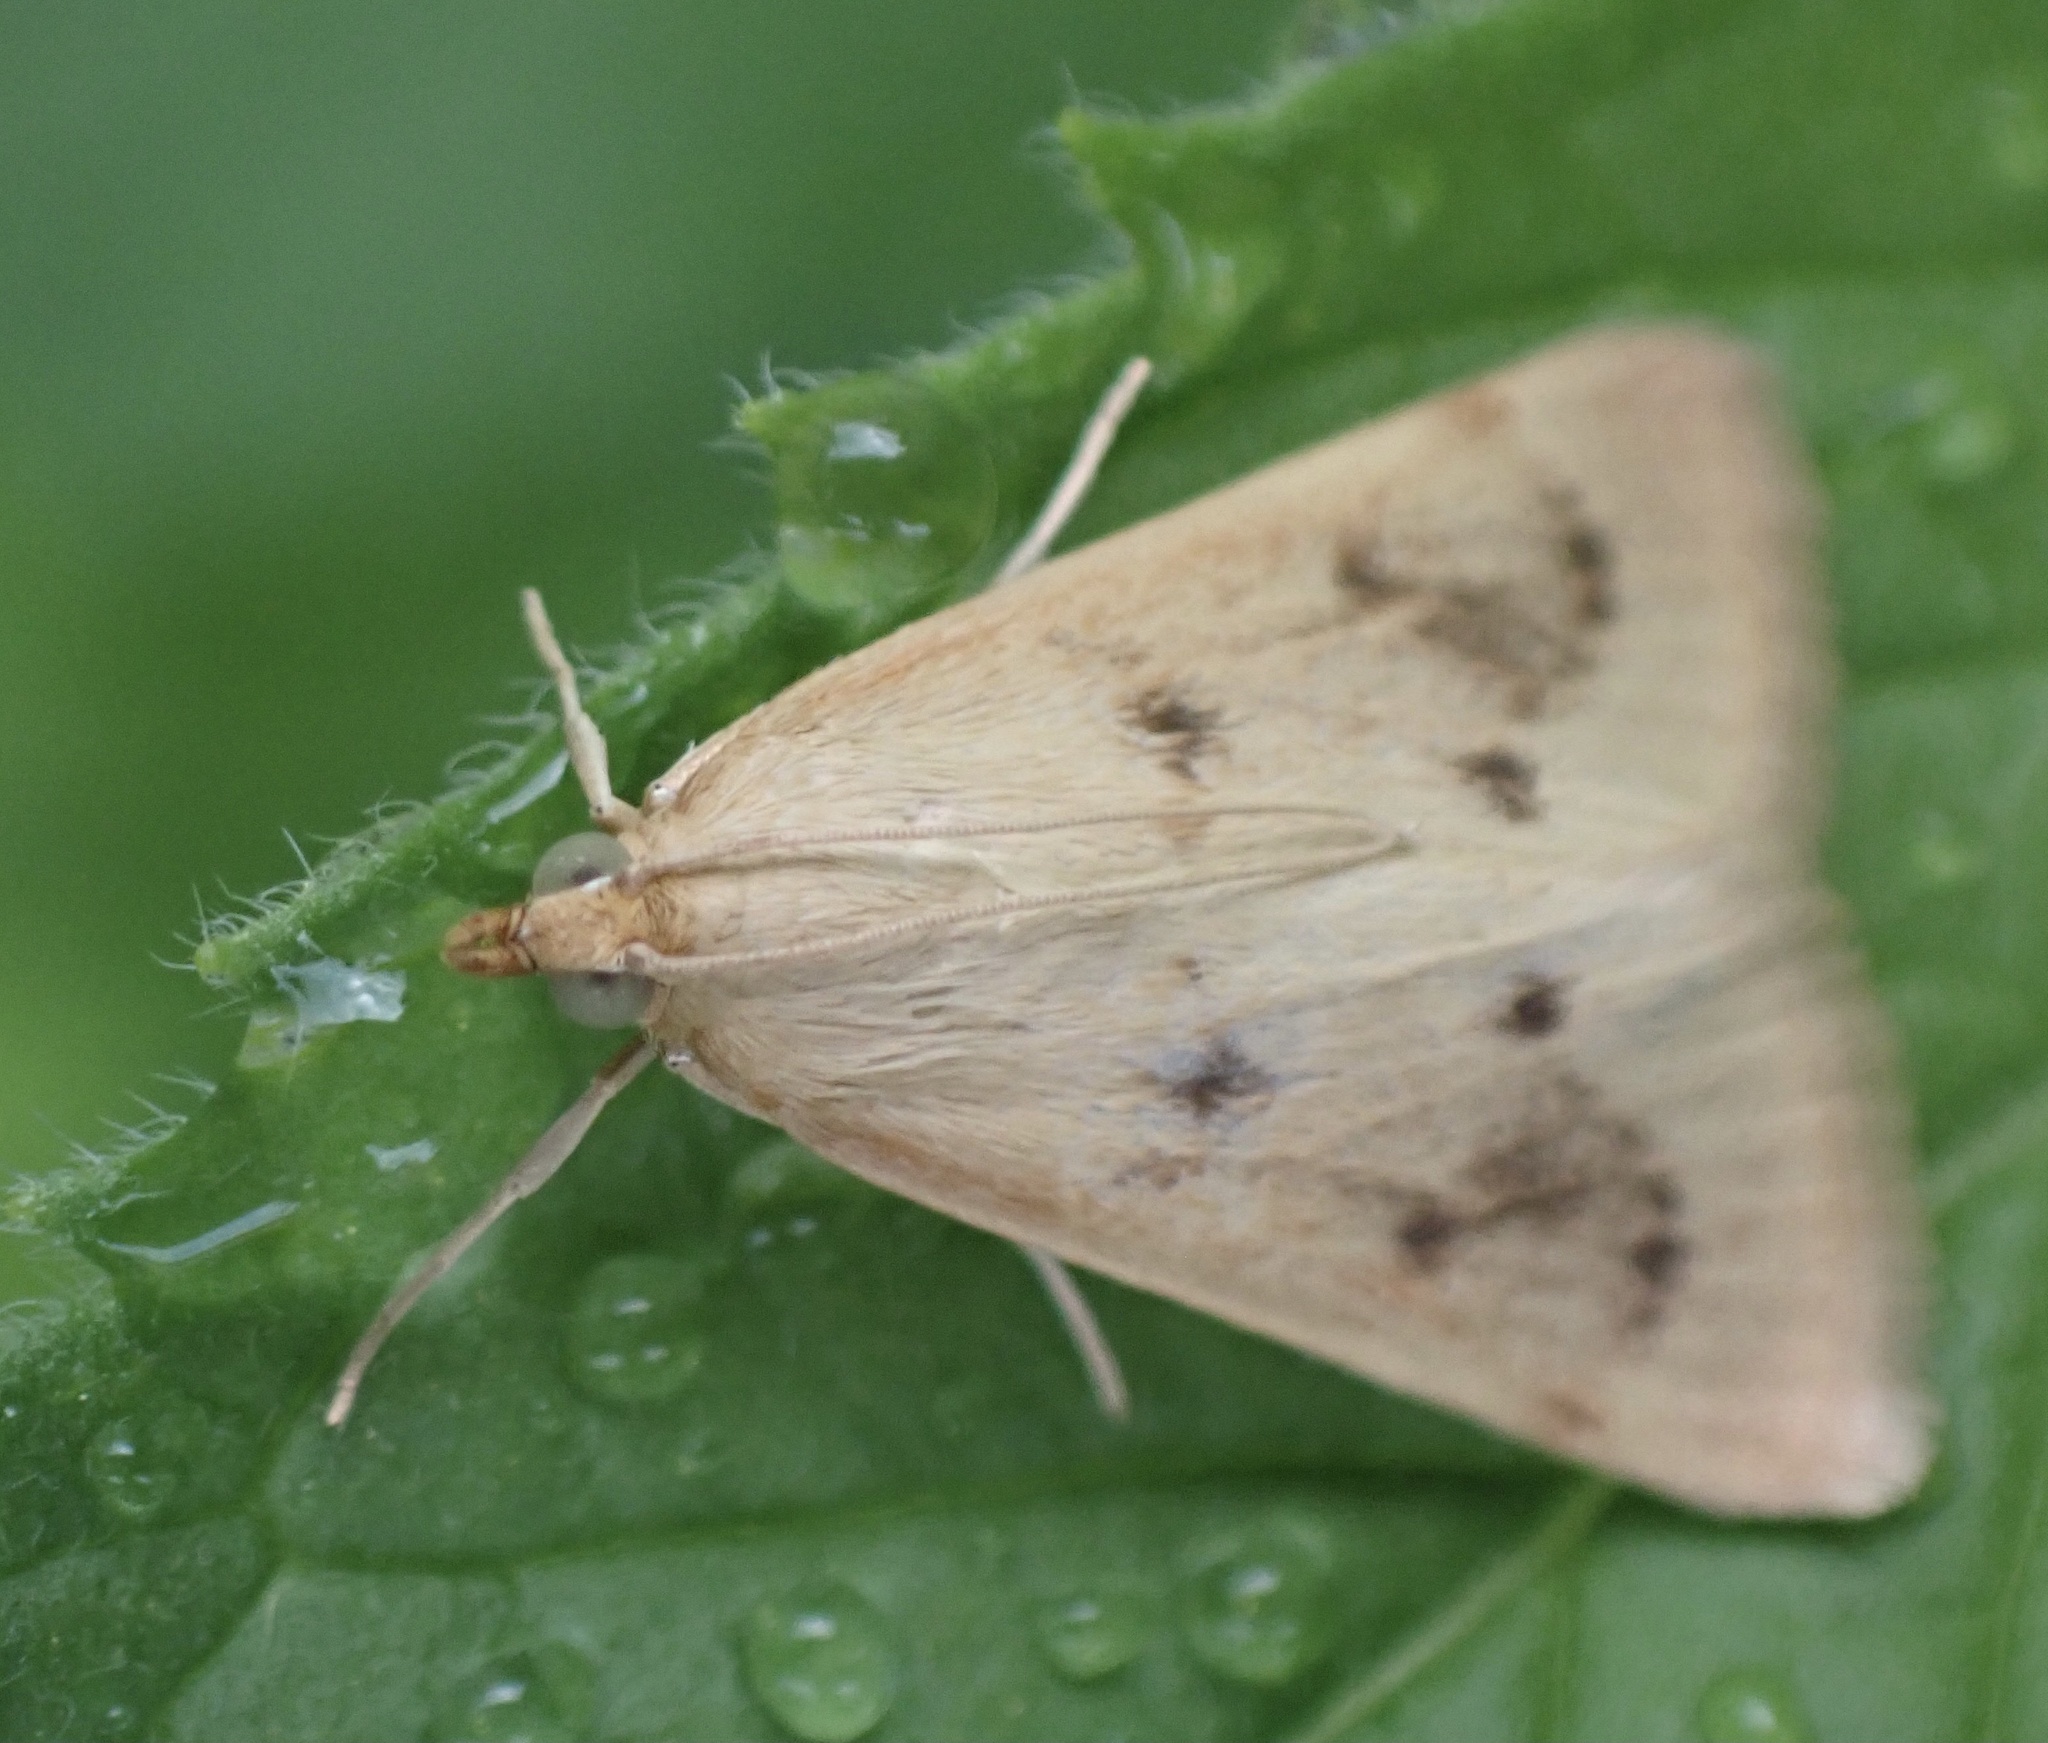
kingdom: Animalia
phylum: Arthropoda
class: Insecta
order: Lepidoptera
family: Crambidae
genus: Achyra
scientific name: Achyra nudalis
